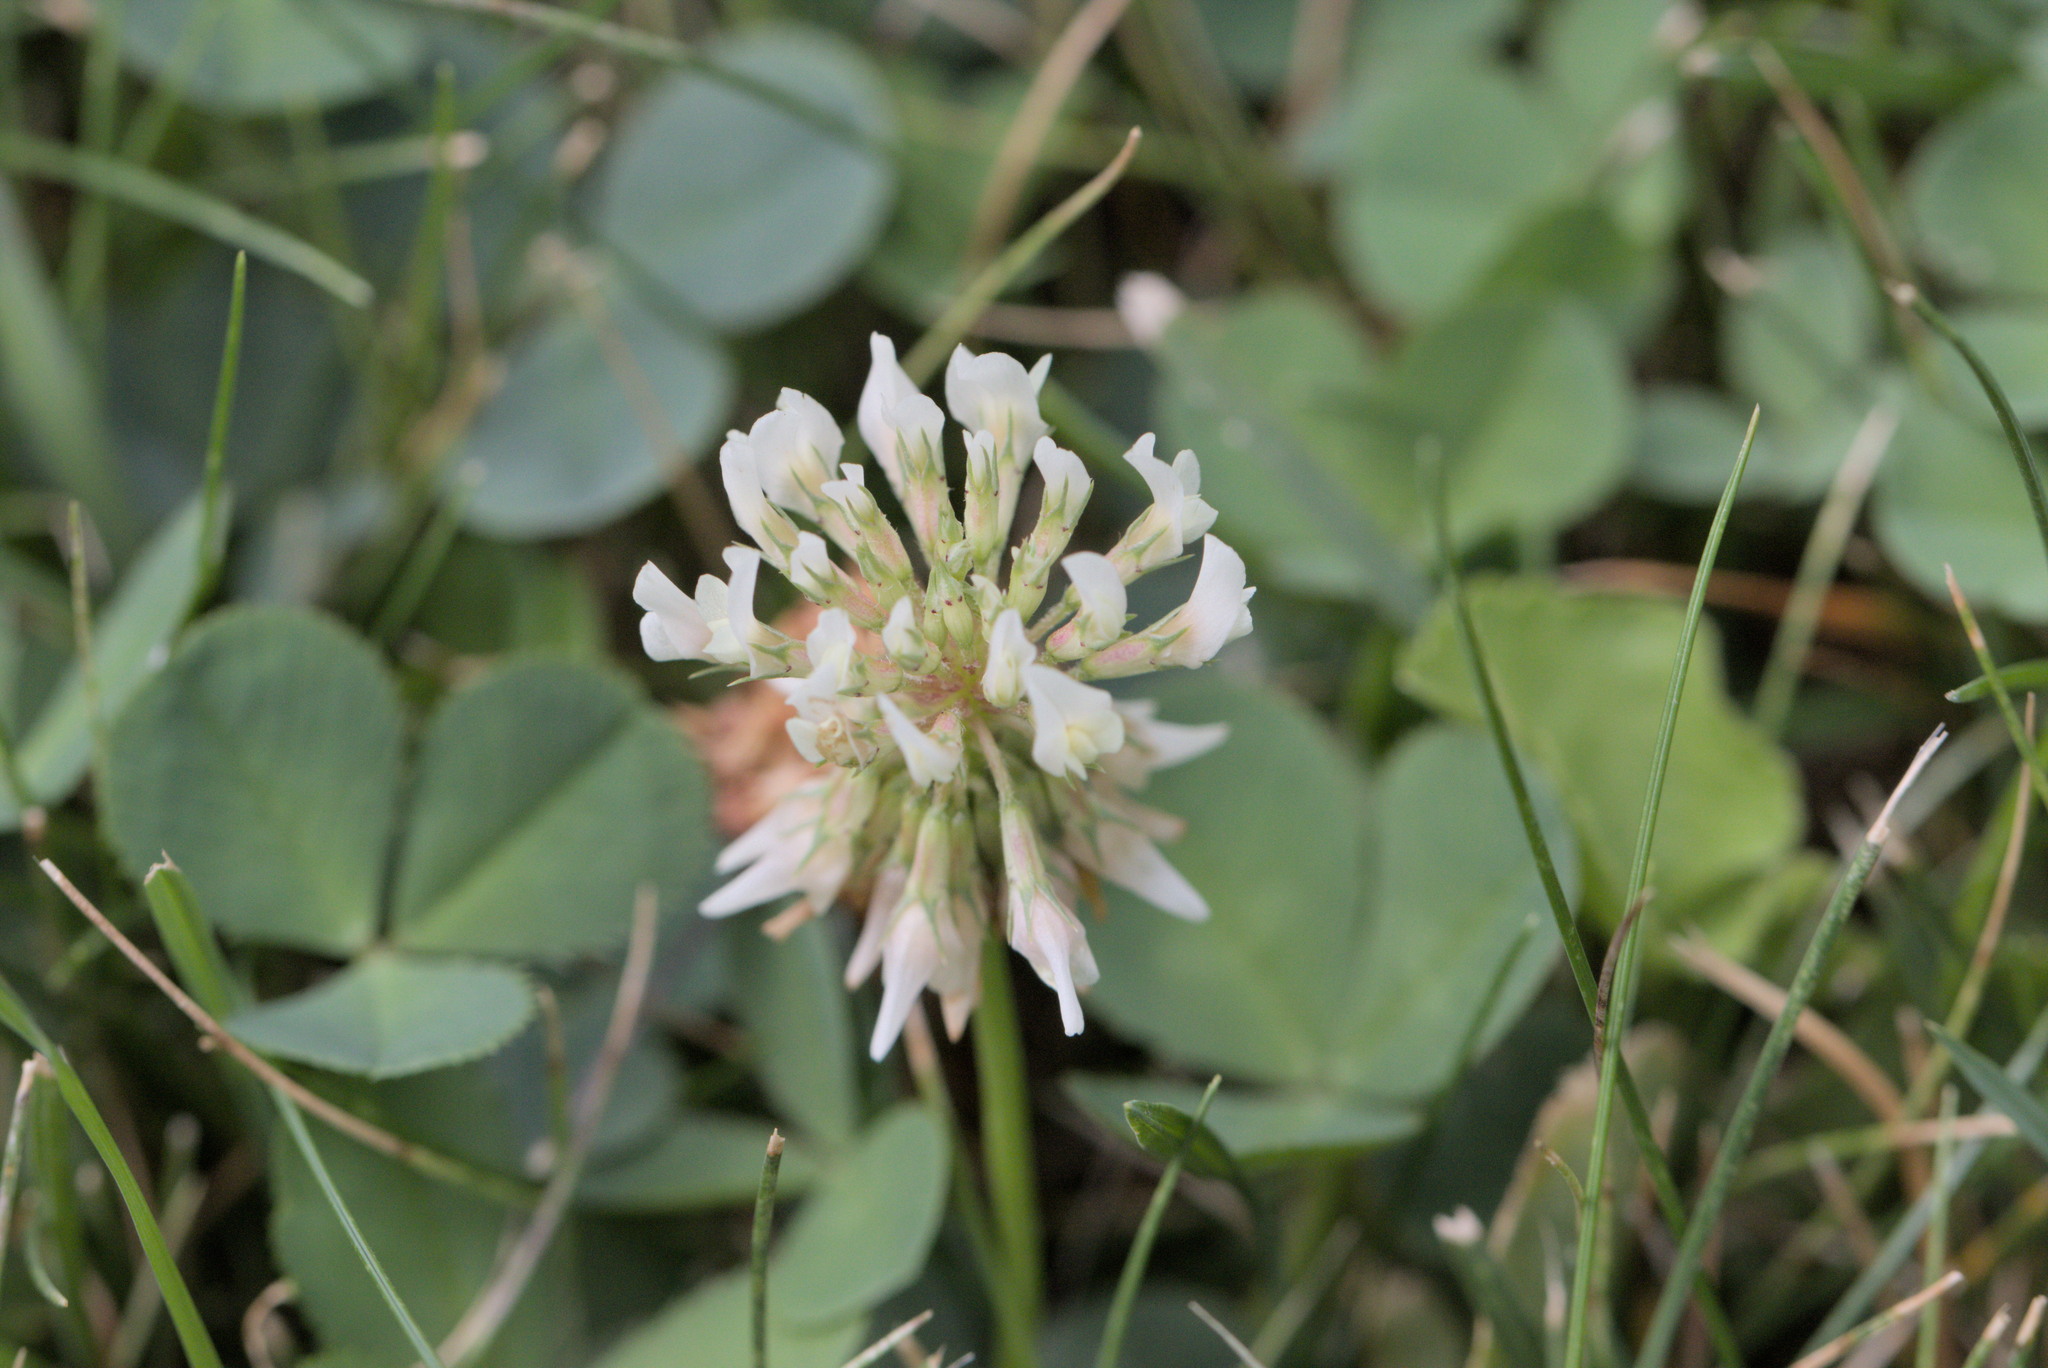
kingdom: Plantae
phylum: Tracheophyta
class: Magnoliopsida
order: Fabales
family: Fabaceae
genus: Trifolium
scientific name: Trifolium repens
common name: White clover
